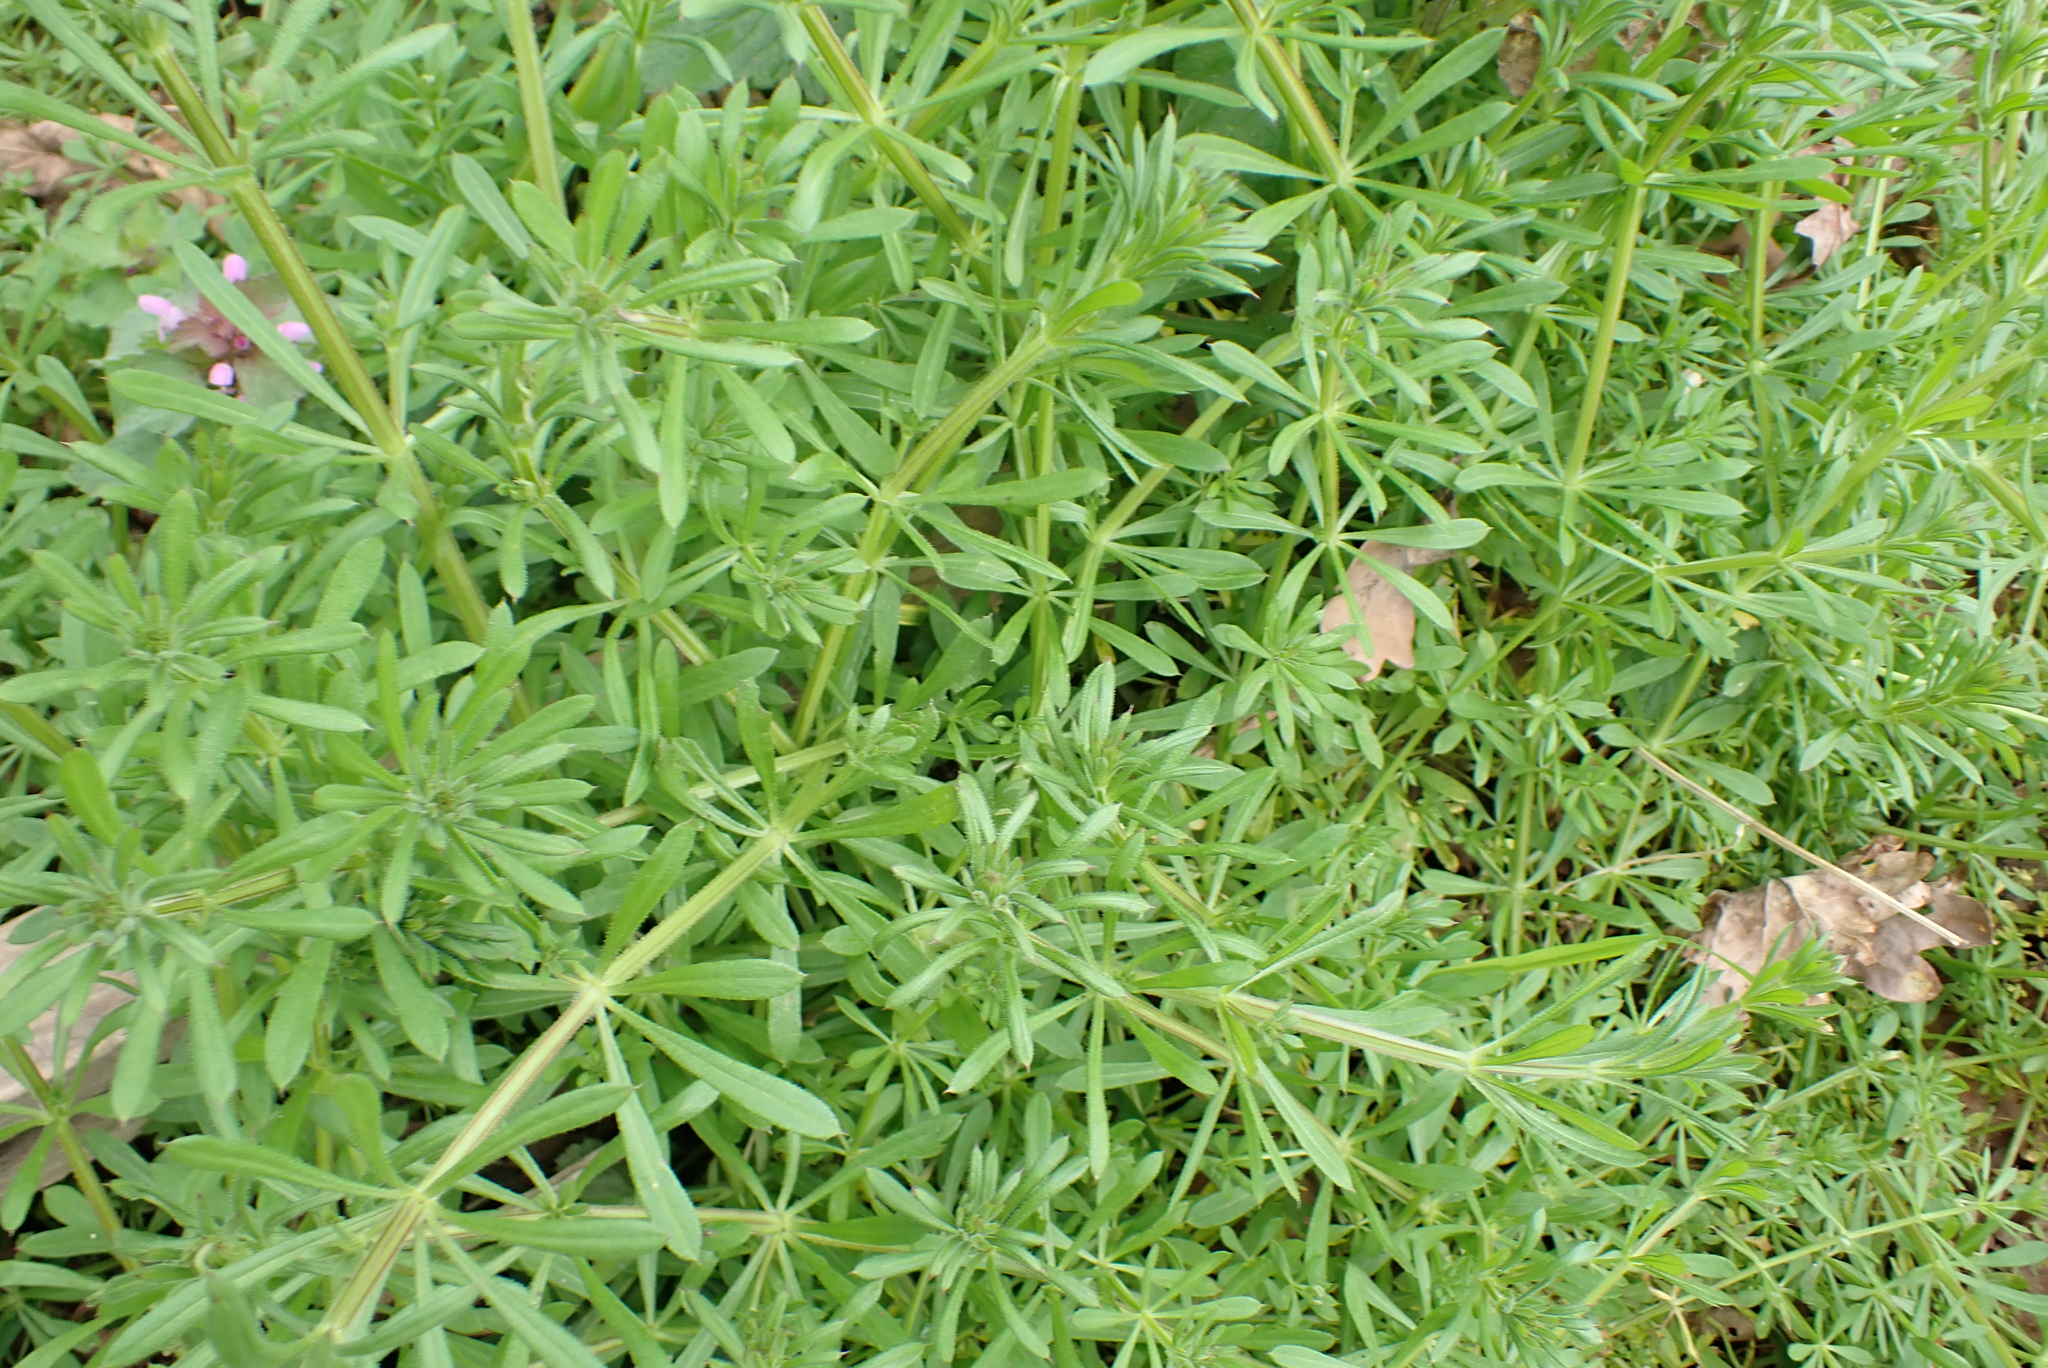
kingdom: Plantae
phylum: Tracheophyta
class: Magnoliopsida
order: Gentianales
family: Rubiaceae
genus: Galium
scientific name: Galium aparine
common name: Cleavers
